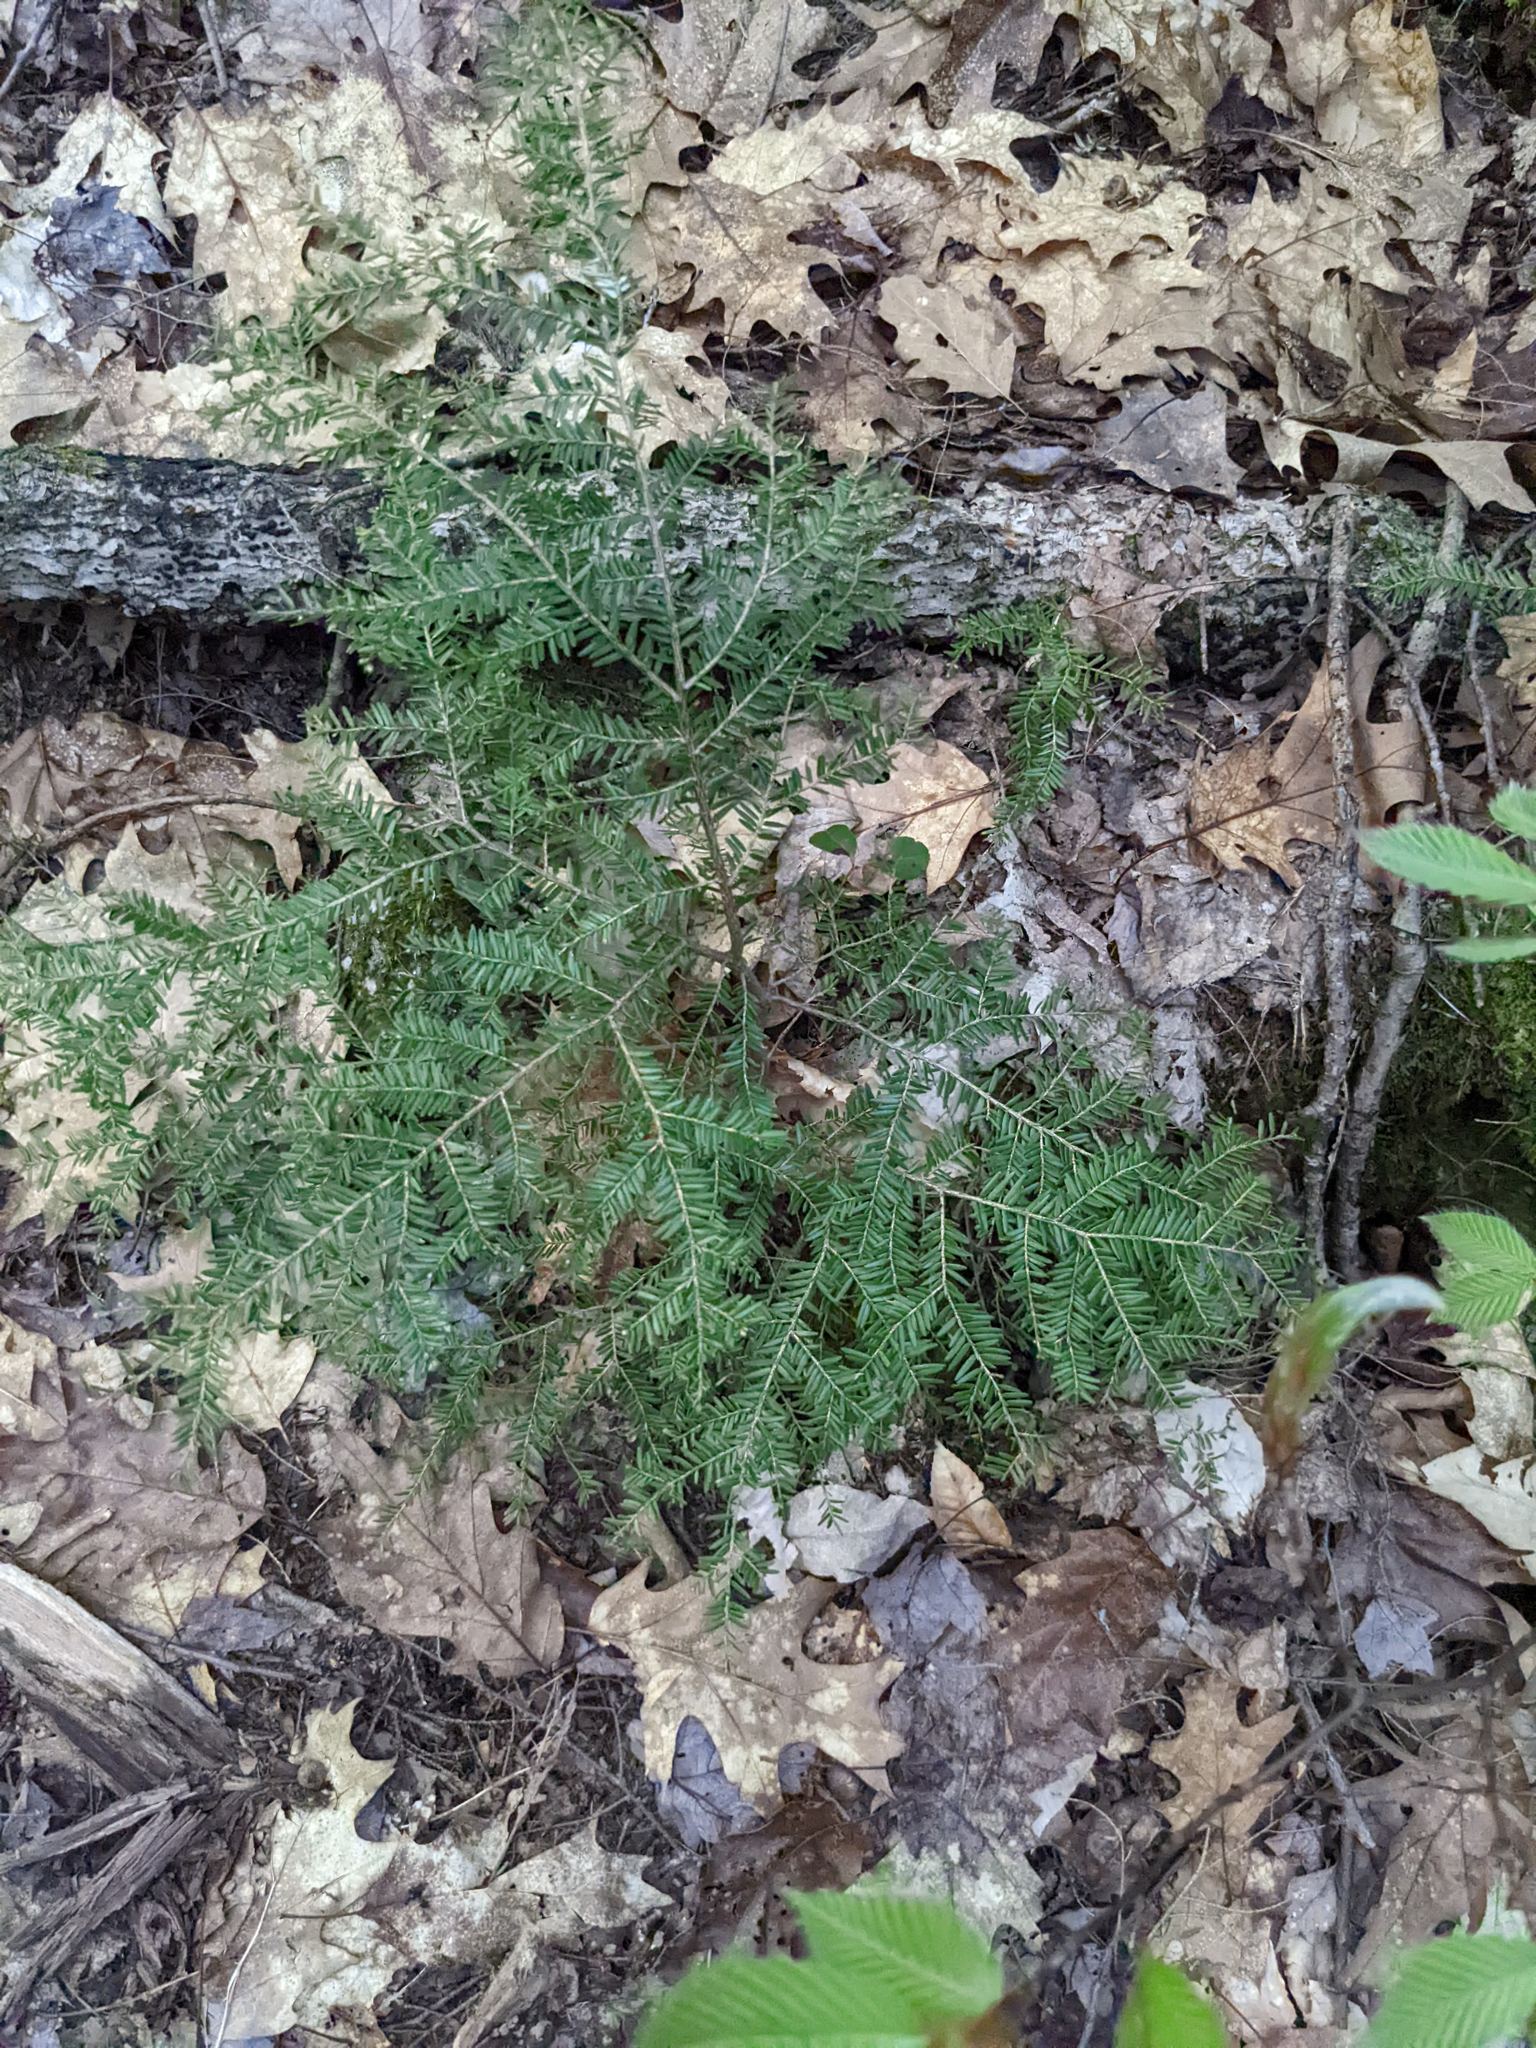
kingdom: Plantae
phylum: Tracheophyta
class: Pinopsida
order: Pinales
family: Pinaceae
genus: Tsuga
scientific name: Tsuga canadensis
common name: Eastern hemlock
